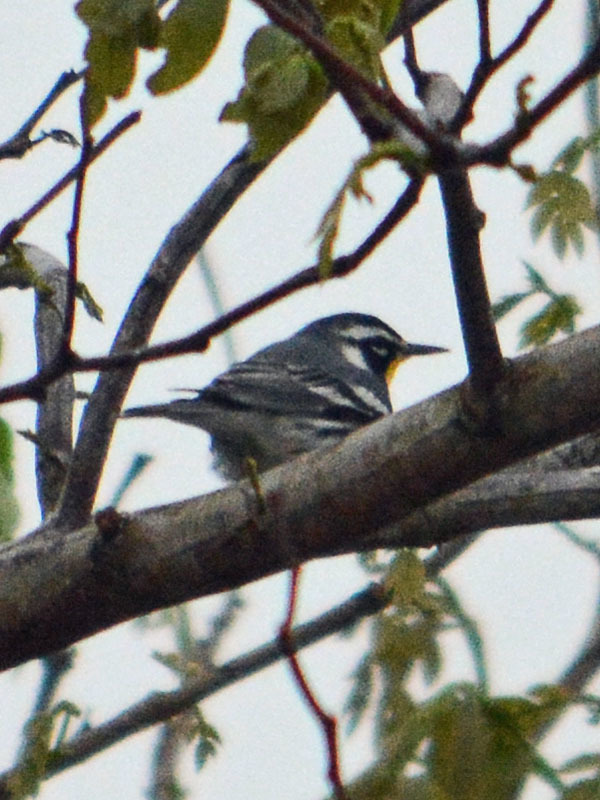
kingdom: Animalia
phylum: Chordata
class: Aves
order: Passeriformes
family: Parulidae
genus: Setophaga
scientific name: Setophaga dominica
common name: Yellow-throated warbler
